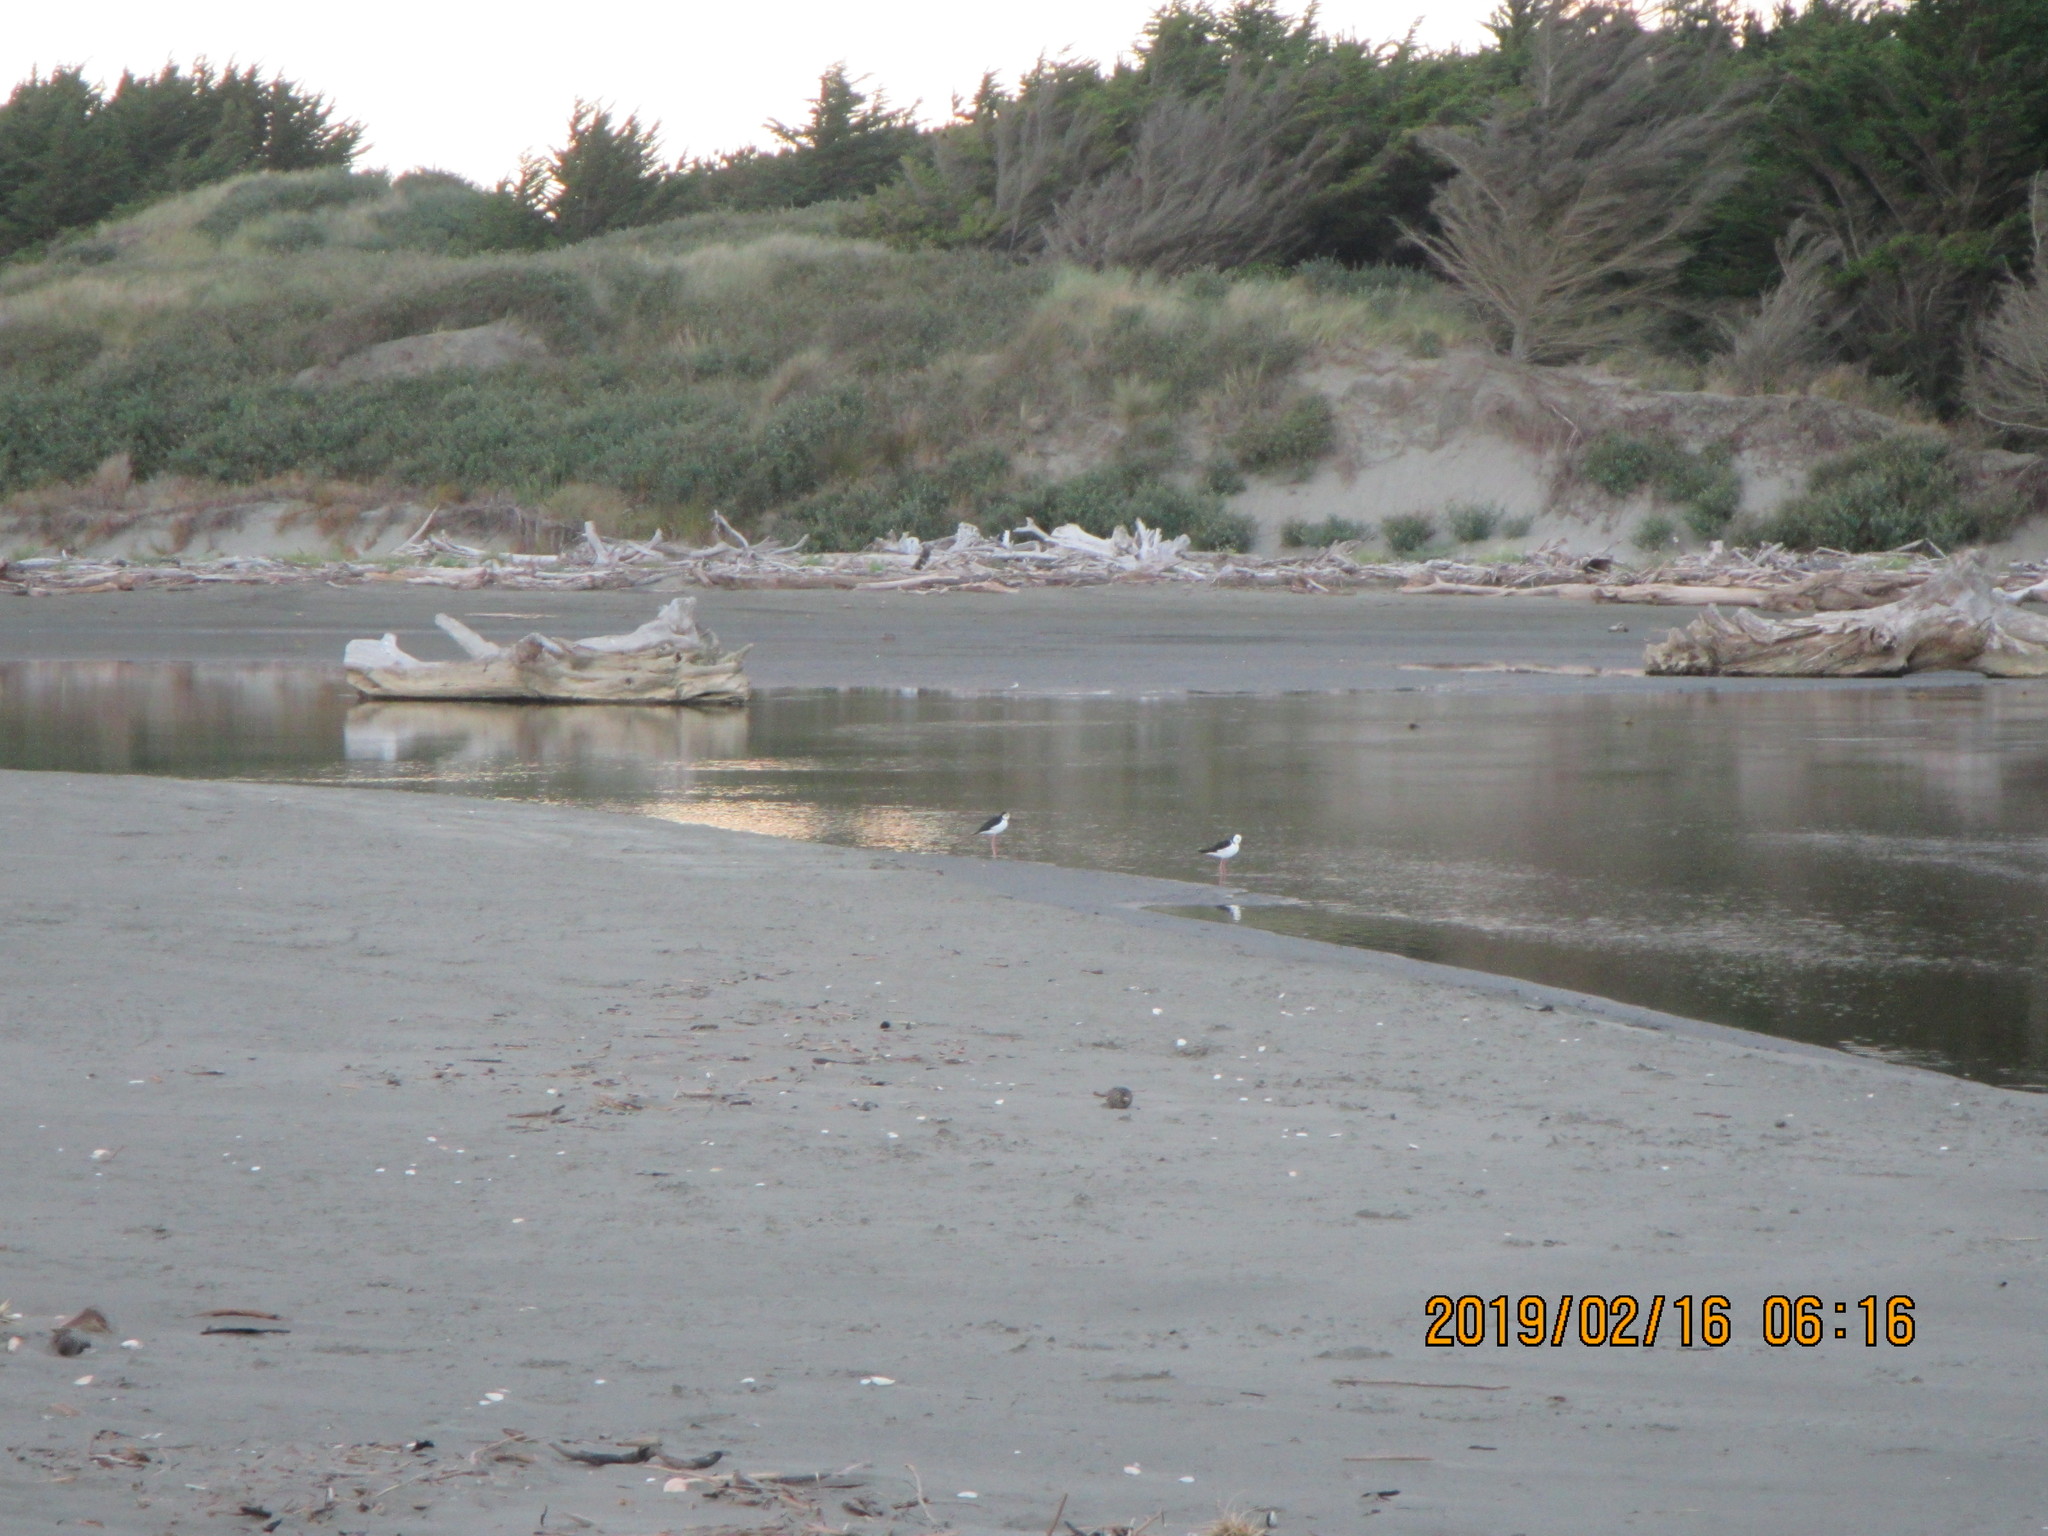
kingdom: Animalia
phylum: Chordata
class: Aves
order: Charadriiformes
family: Recurvirostridae
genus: Himantopus
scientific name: Himantopus leucocephalus
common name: White-headed stilt
